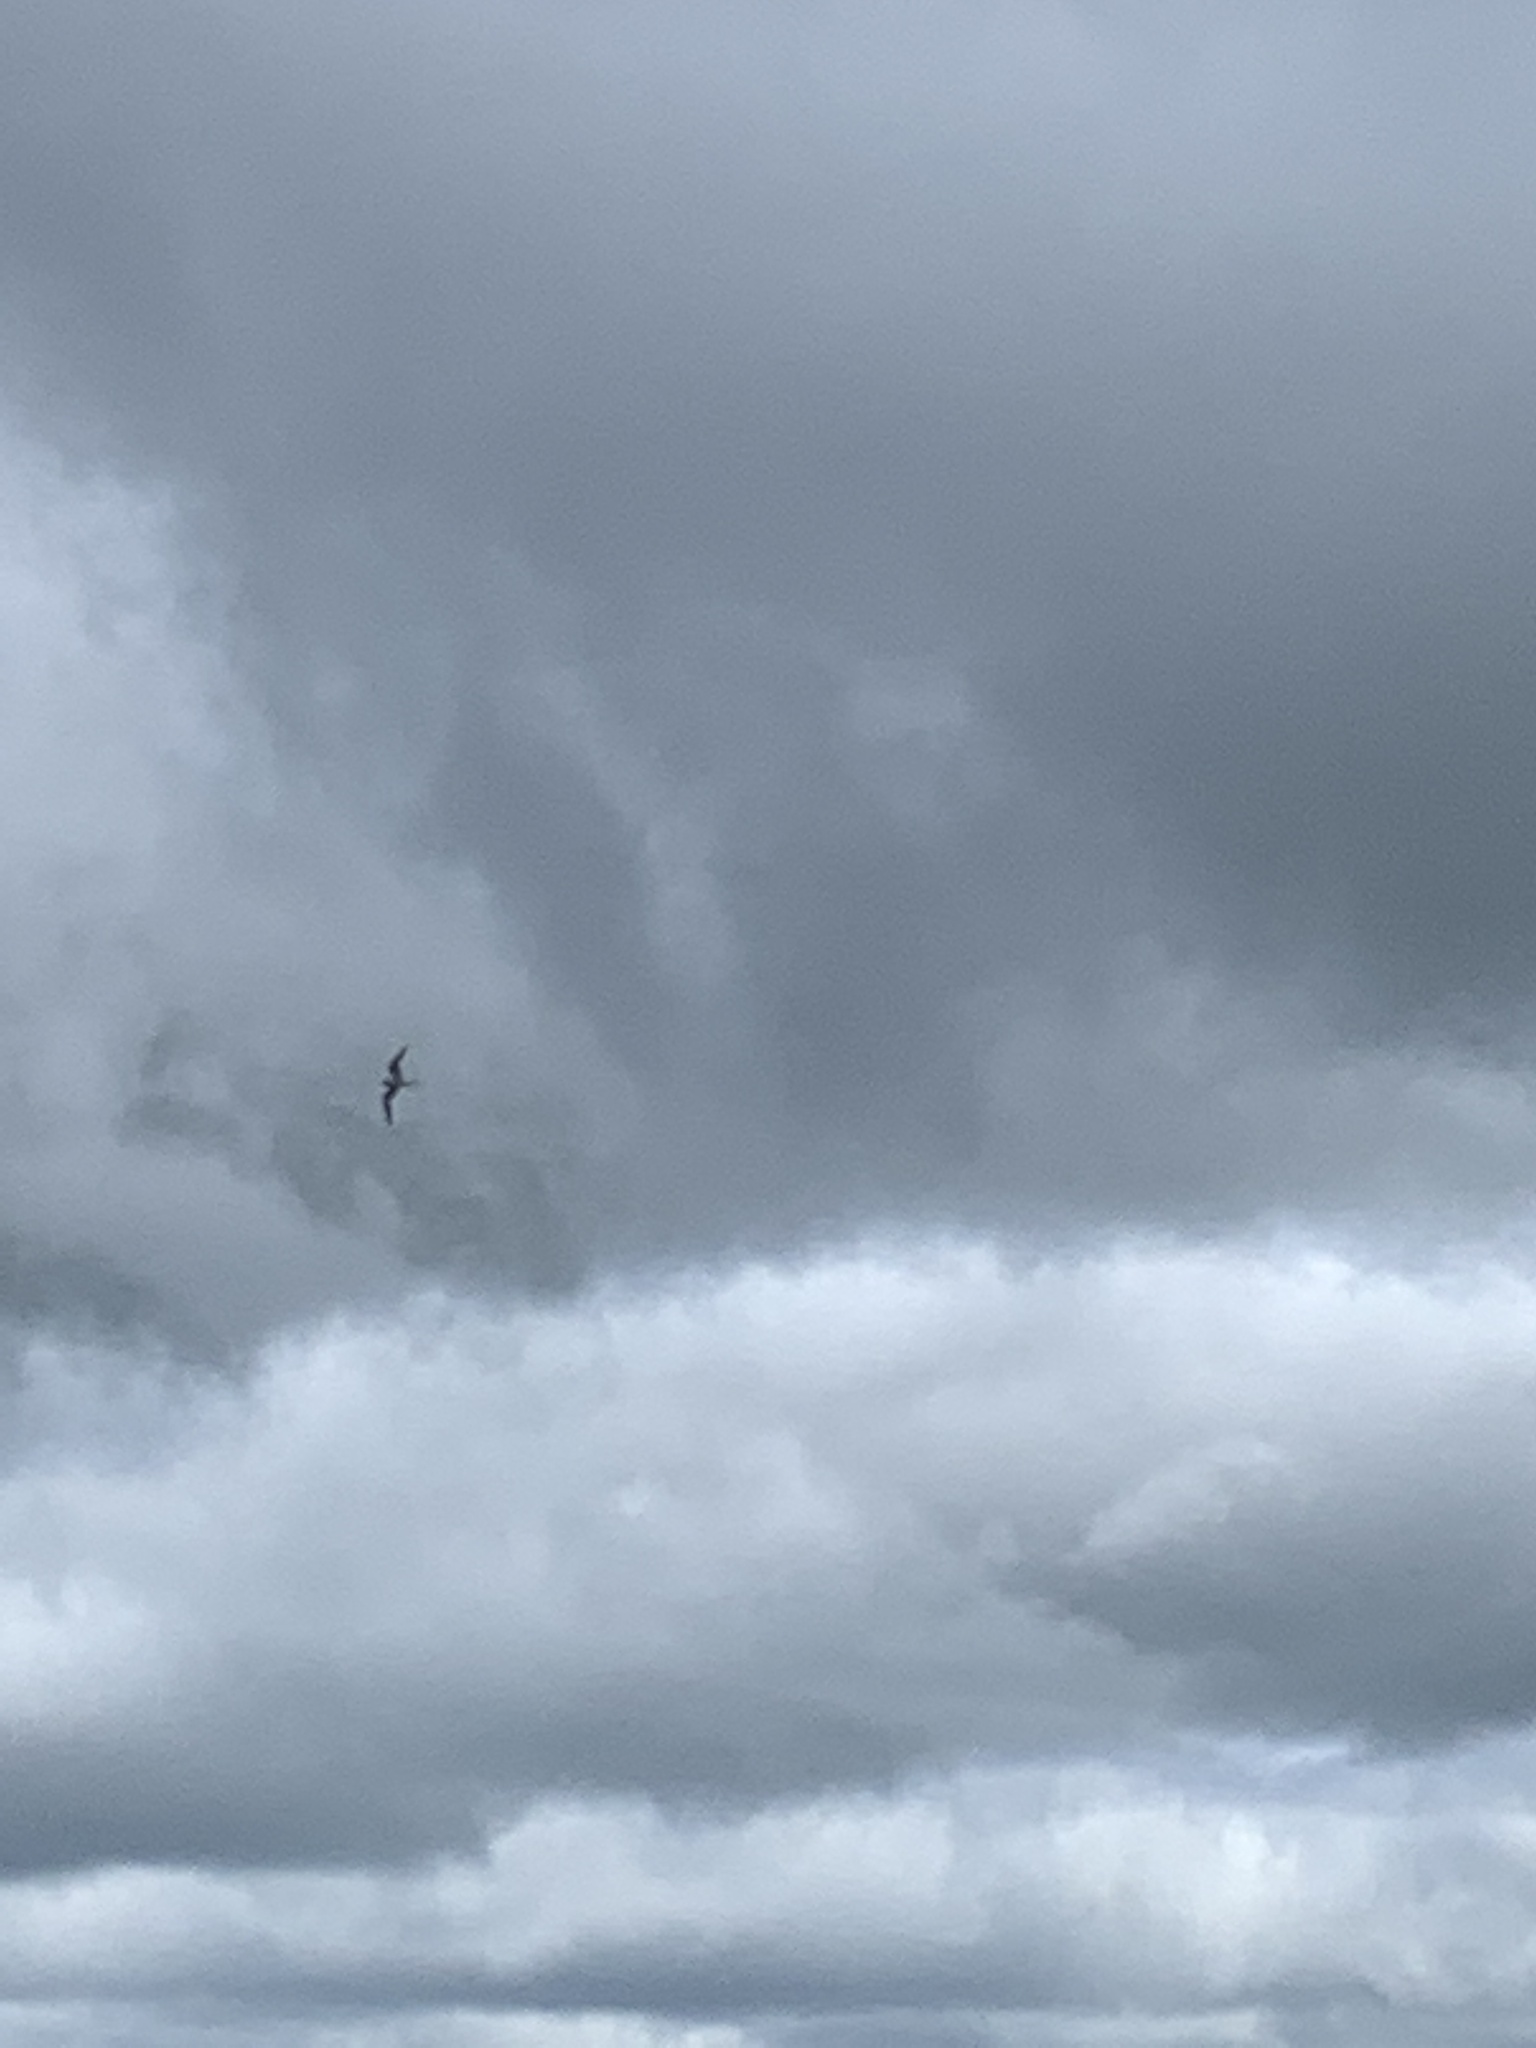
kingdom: Animalia
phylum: Chordata
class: Aves
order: Charadriiformes
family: Laridae
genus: Sterna
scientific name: Sterna hirundo
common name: Common tern
